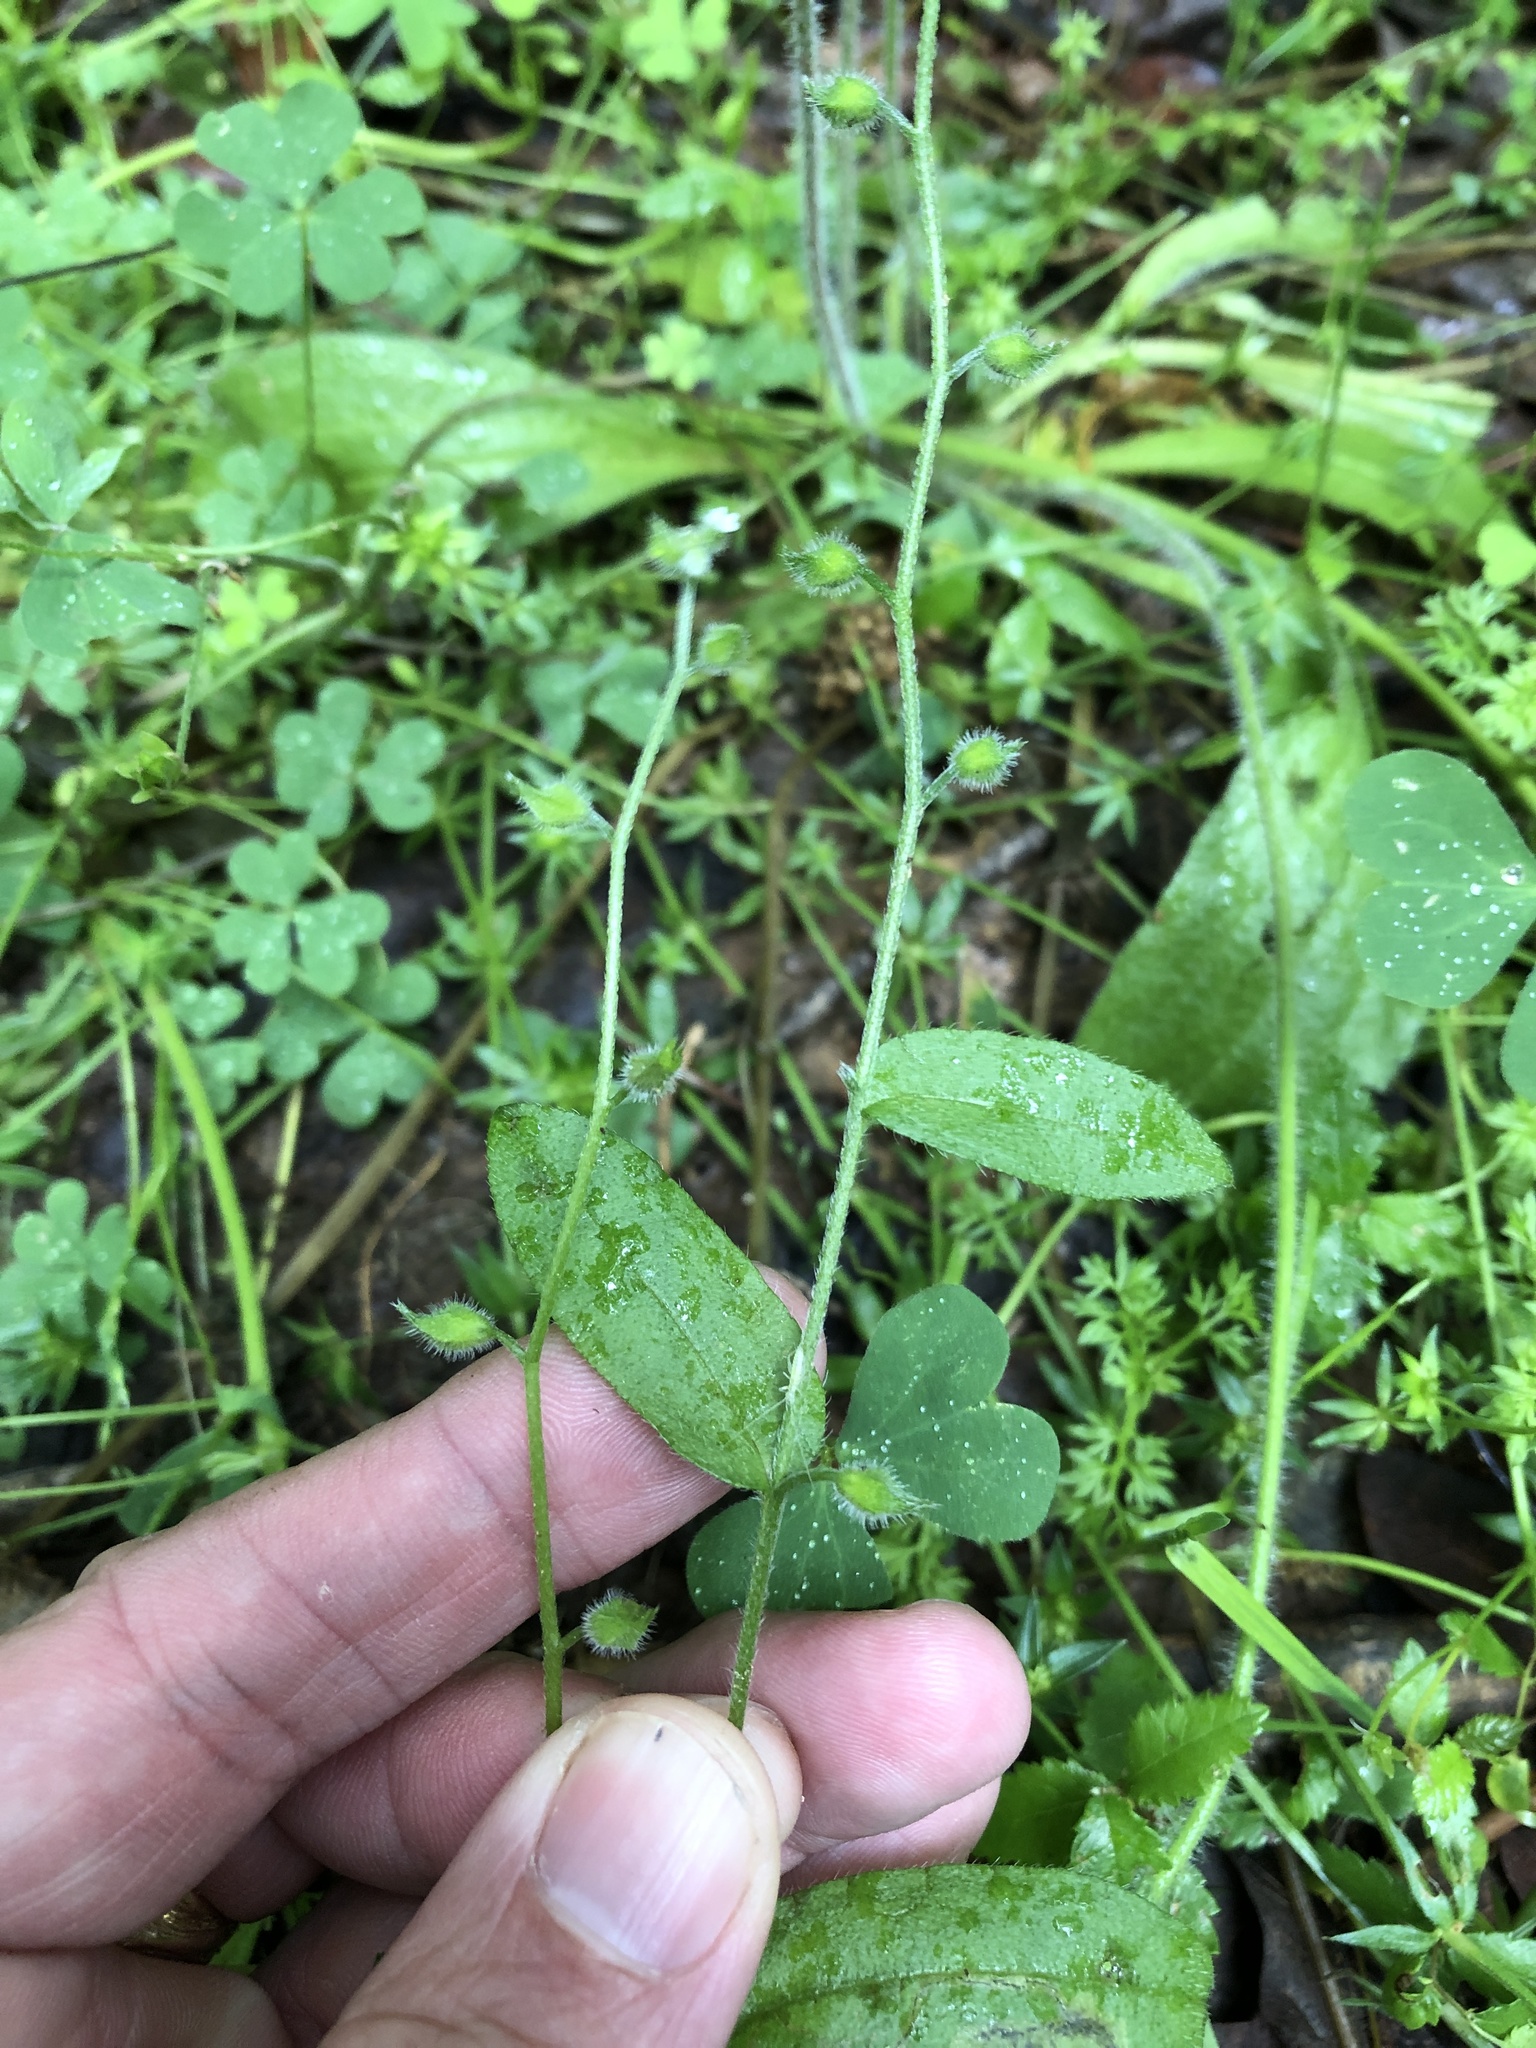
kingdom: Plantae
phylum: Tracheophyta
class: Magnoliopsida
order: Boraginales
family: Boraginaceae
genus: Myosotis
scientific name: Myosotis macrosperma
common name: Large-seed forget-me-not
